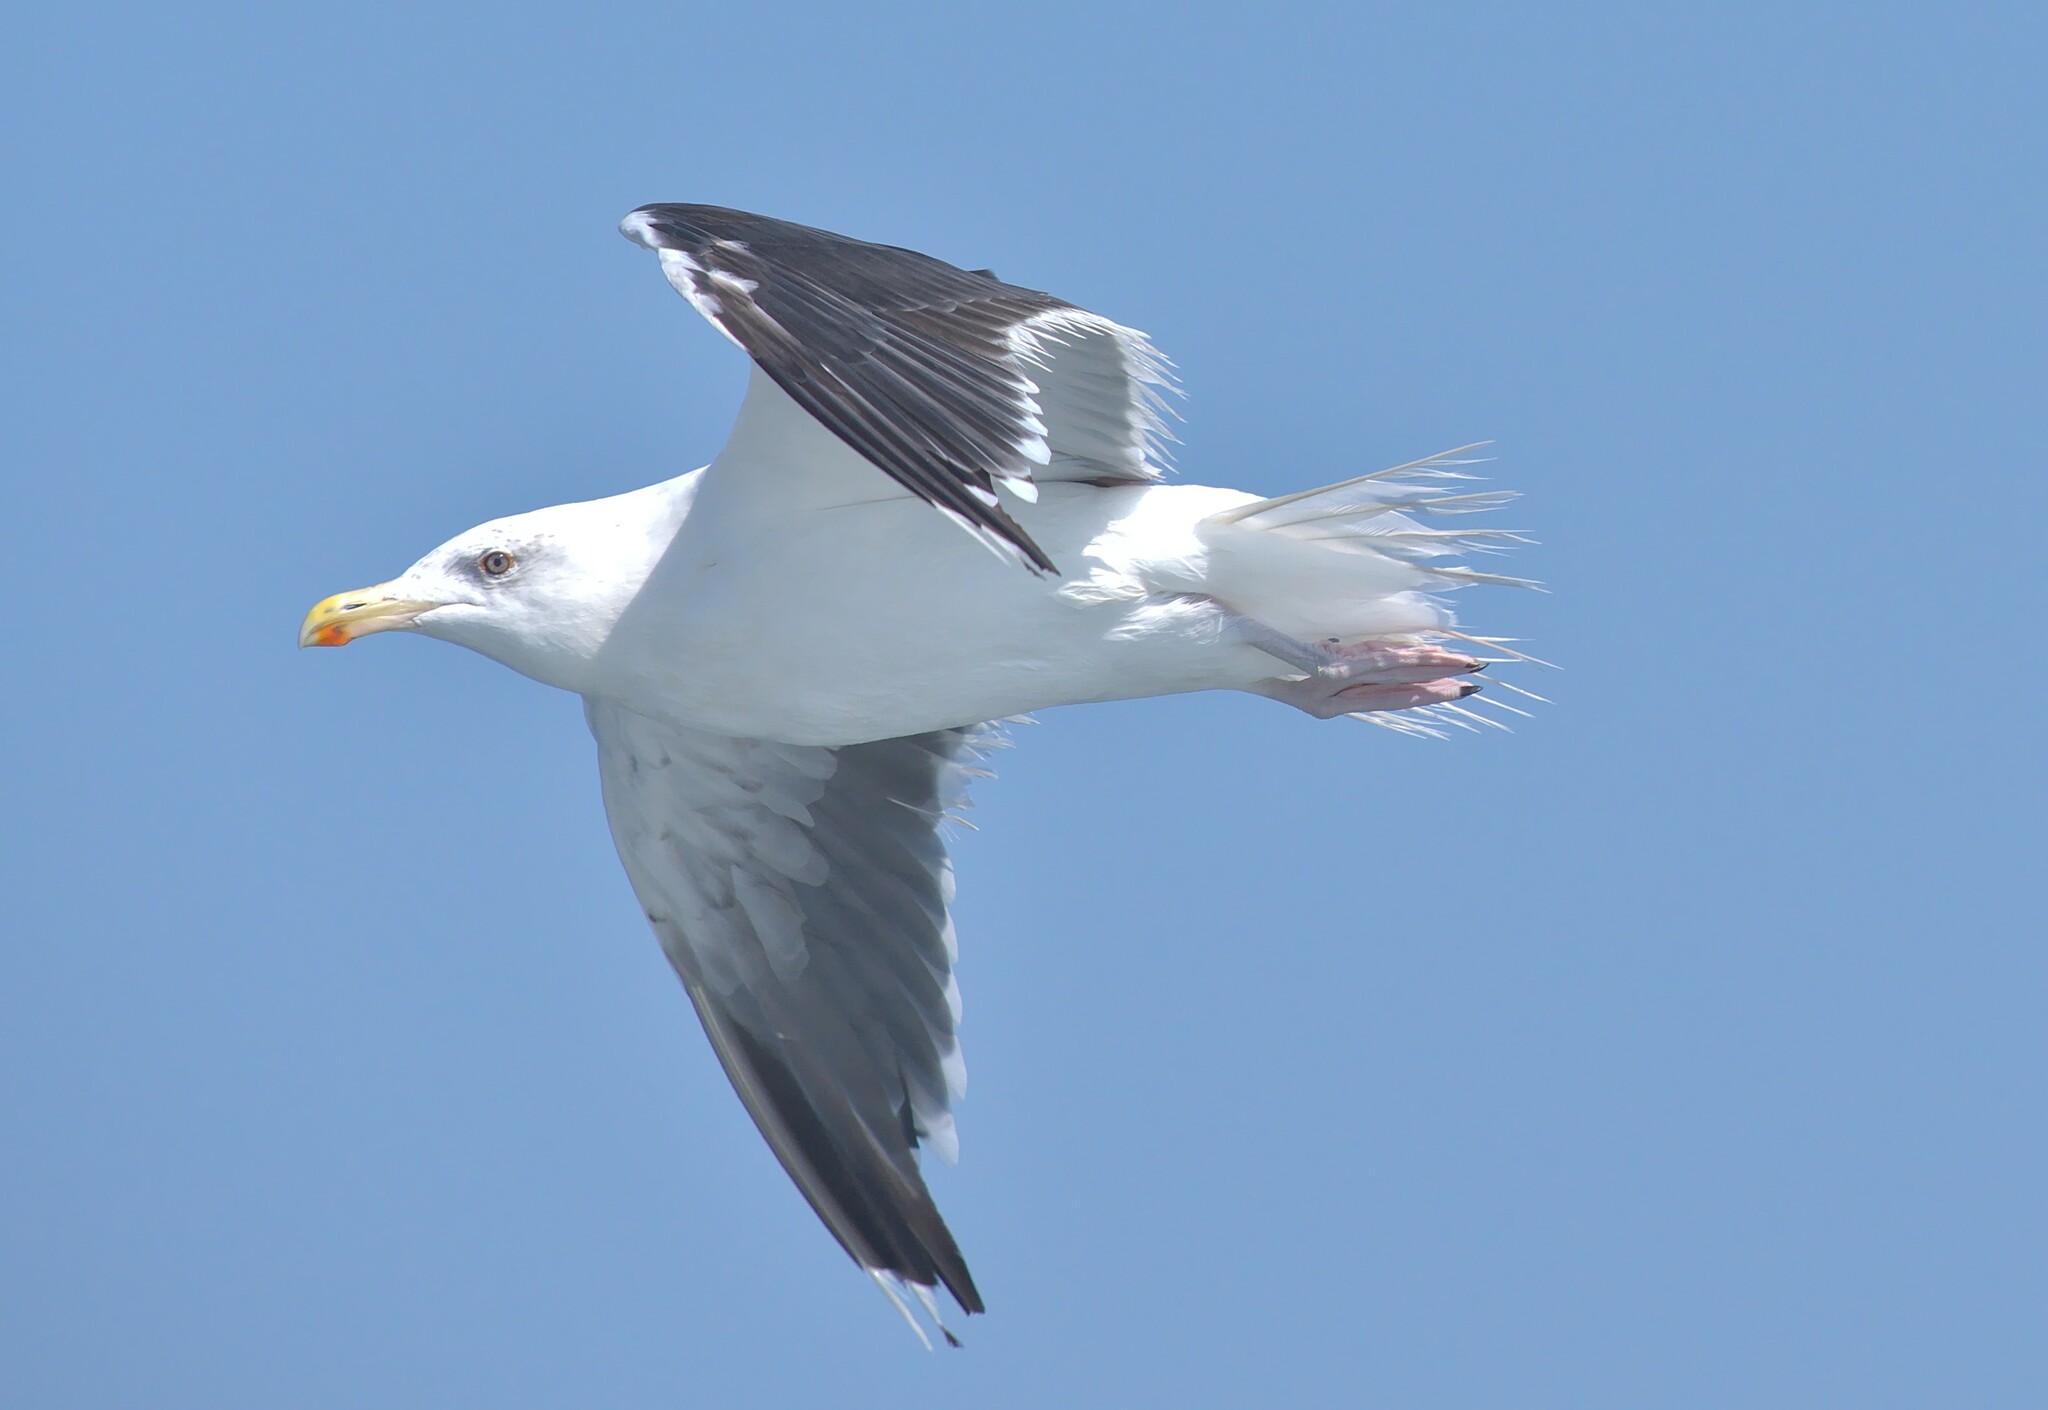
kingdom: Animalia
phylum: Chordata
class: Aves
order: Charadriiformes
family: Laridae
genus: Larus
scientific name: Larus marinus
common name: Great black-backed gull
